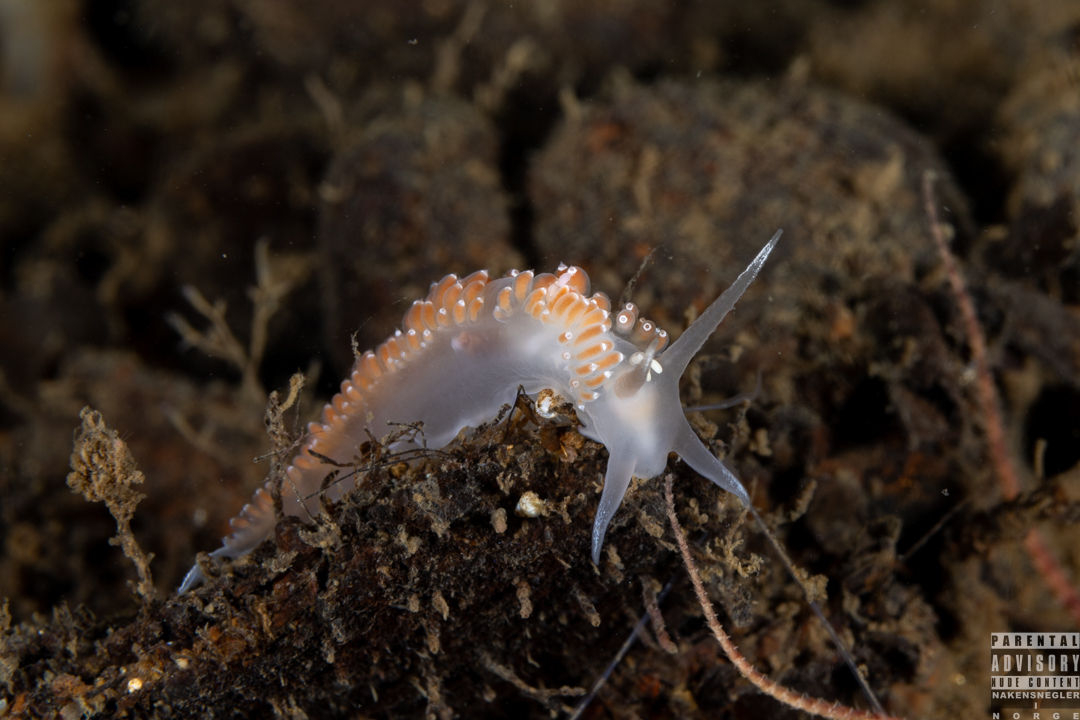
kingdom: Animalia
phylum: Mollusca
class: Gastropoda
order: Nudibranchia
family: Coryphellidae
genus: Coryphella
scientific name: Coryphella verrucosa
